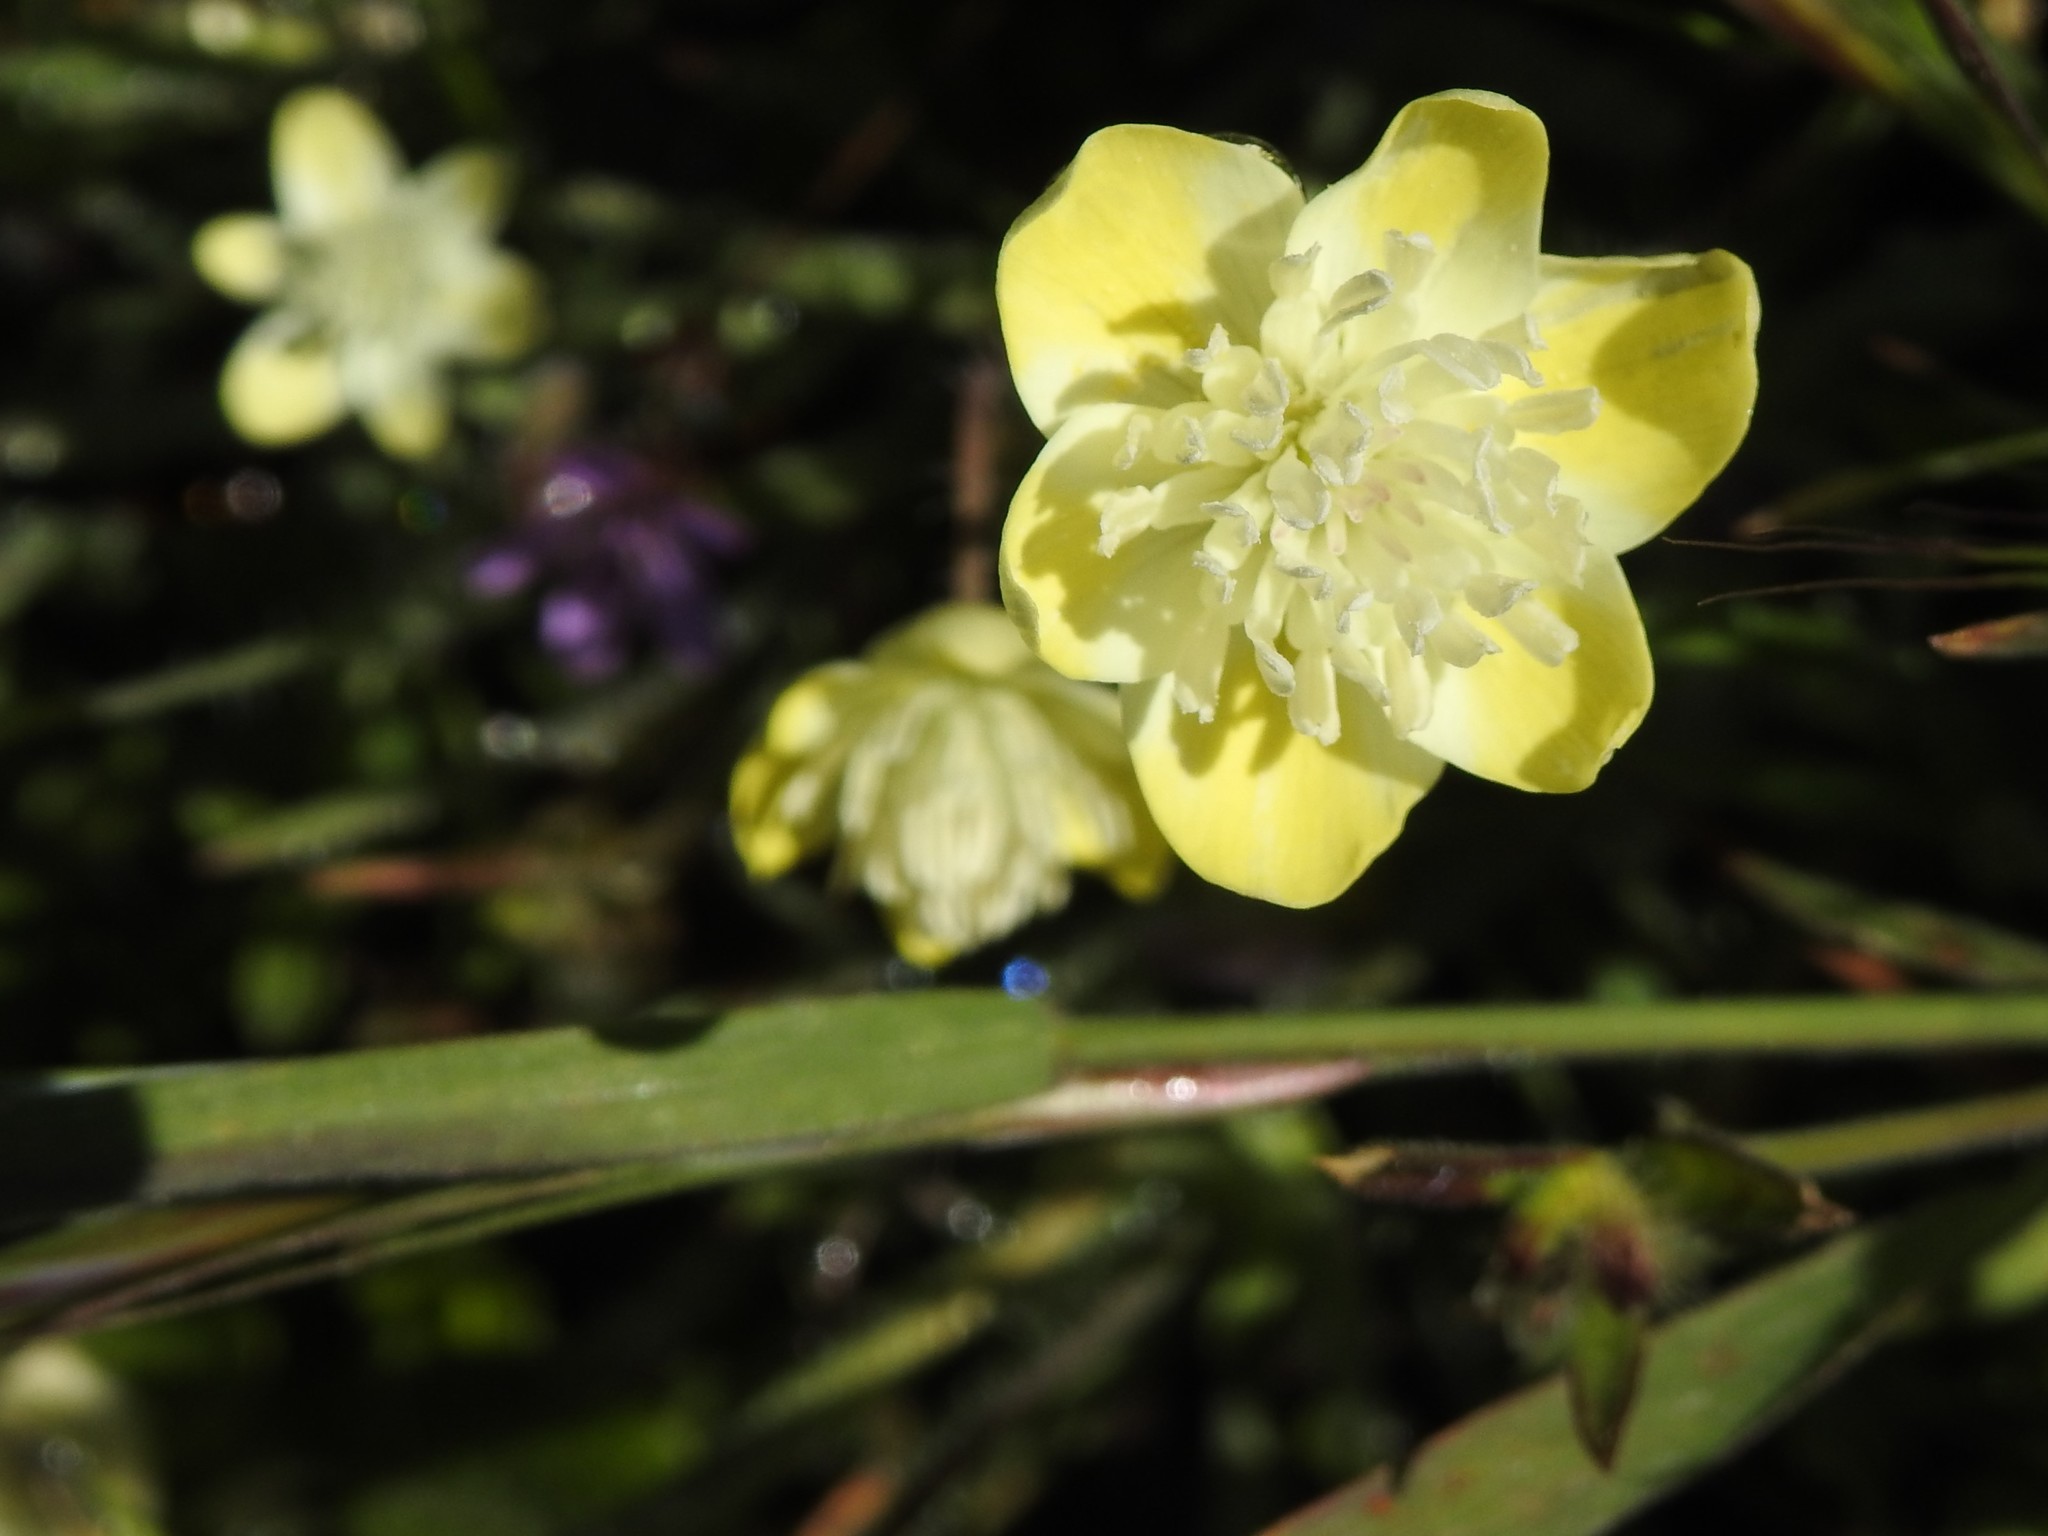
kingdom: Plantae
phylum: Tracheophyta
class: Magnoliopsida
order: Ranunculales
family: Papaveraceae
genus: Platystemon
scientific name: Platystemon californicus
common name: Cream-cups
